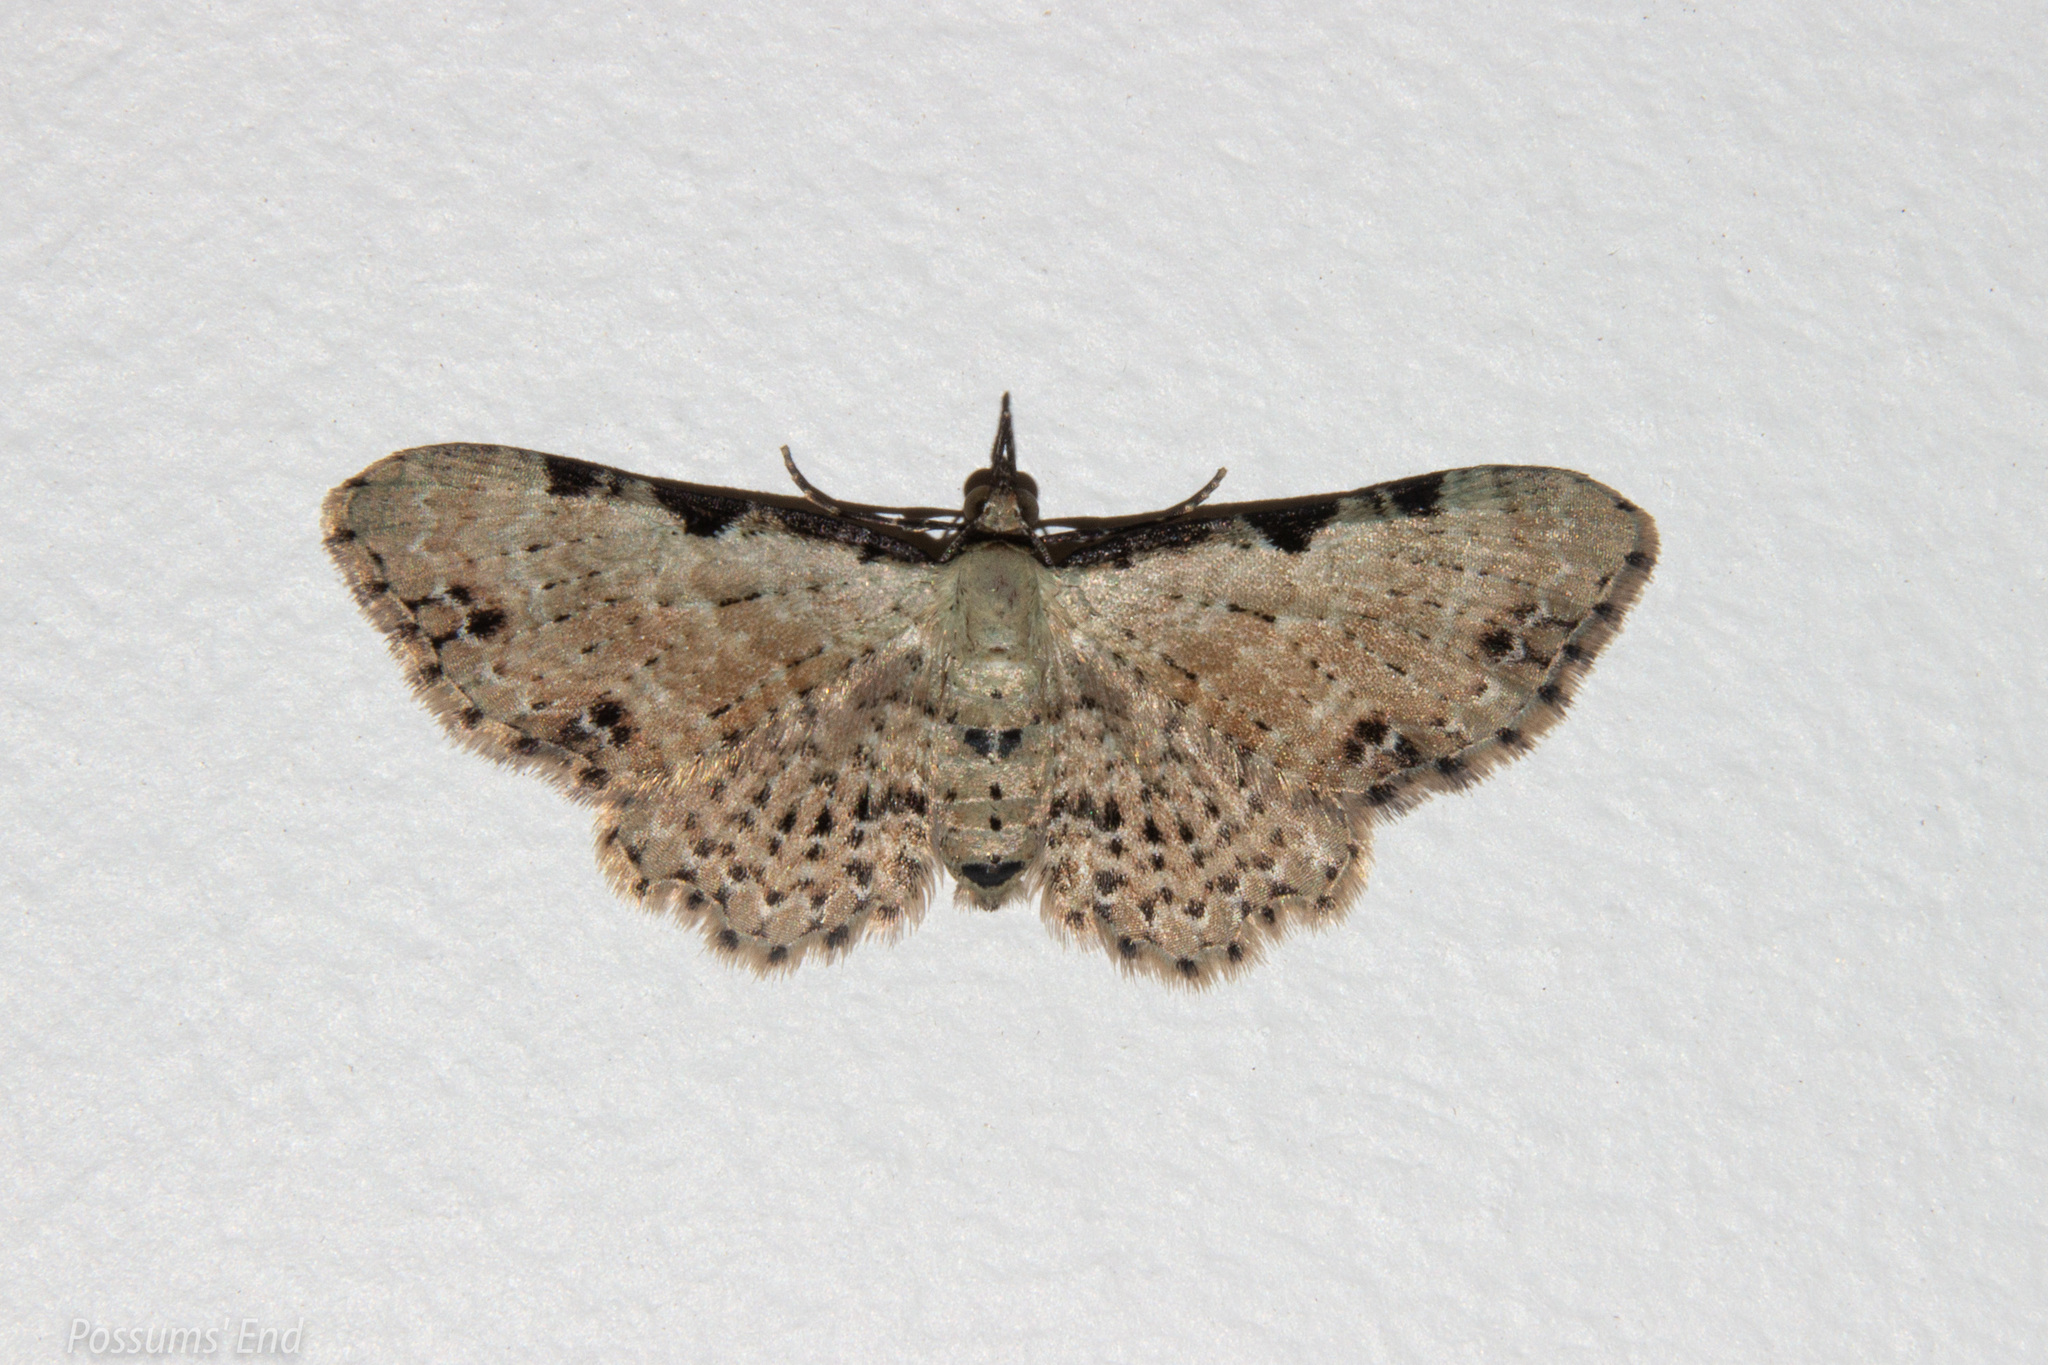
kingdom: Animalia
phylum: Arthropoda
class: Insecta
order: Lepidoptera
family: Geometridae
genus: Pasiphila
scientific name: Pasiphila fumipalpata
